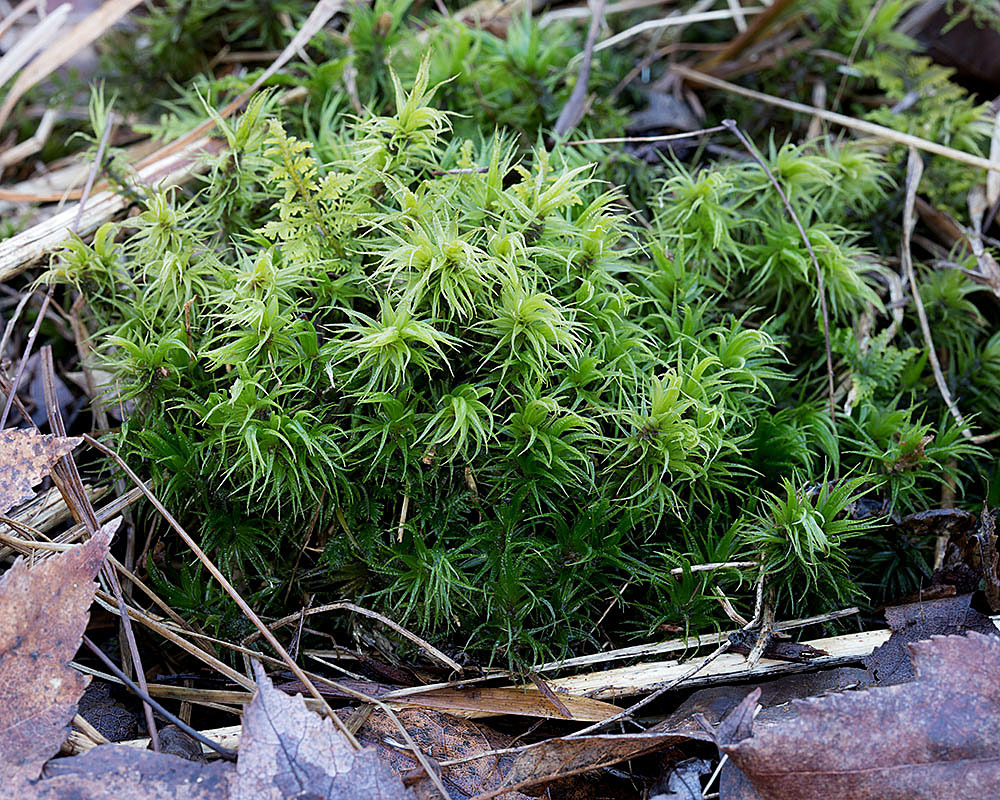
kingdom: Plantae
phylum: Bryophyta
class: Bryopsida
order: Dicranales
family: Dicranaceae
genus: Dicranum
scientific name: Dicranum polysetum
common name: Rugose fork-moss
